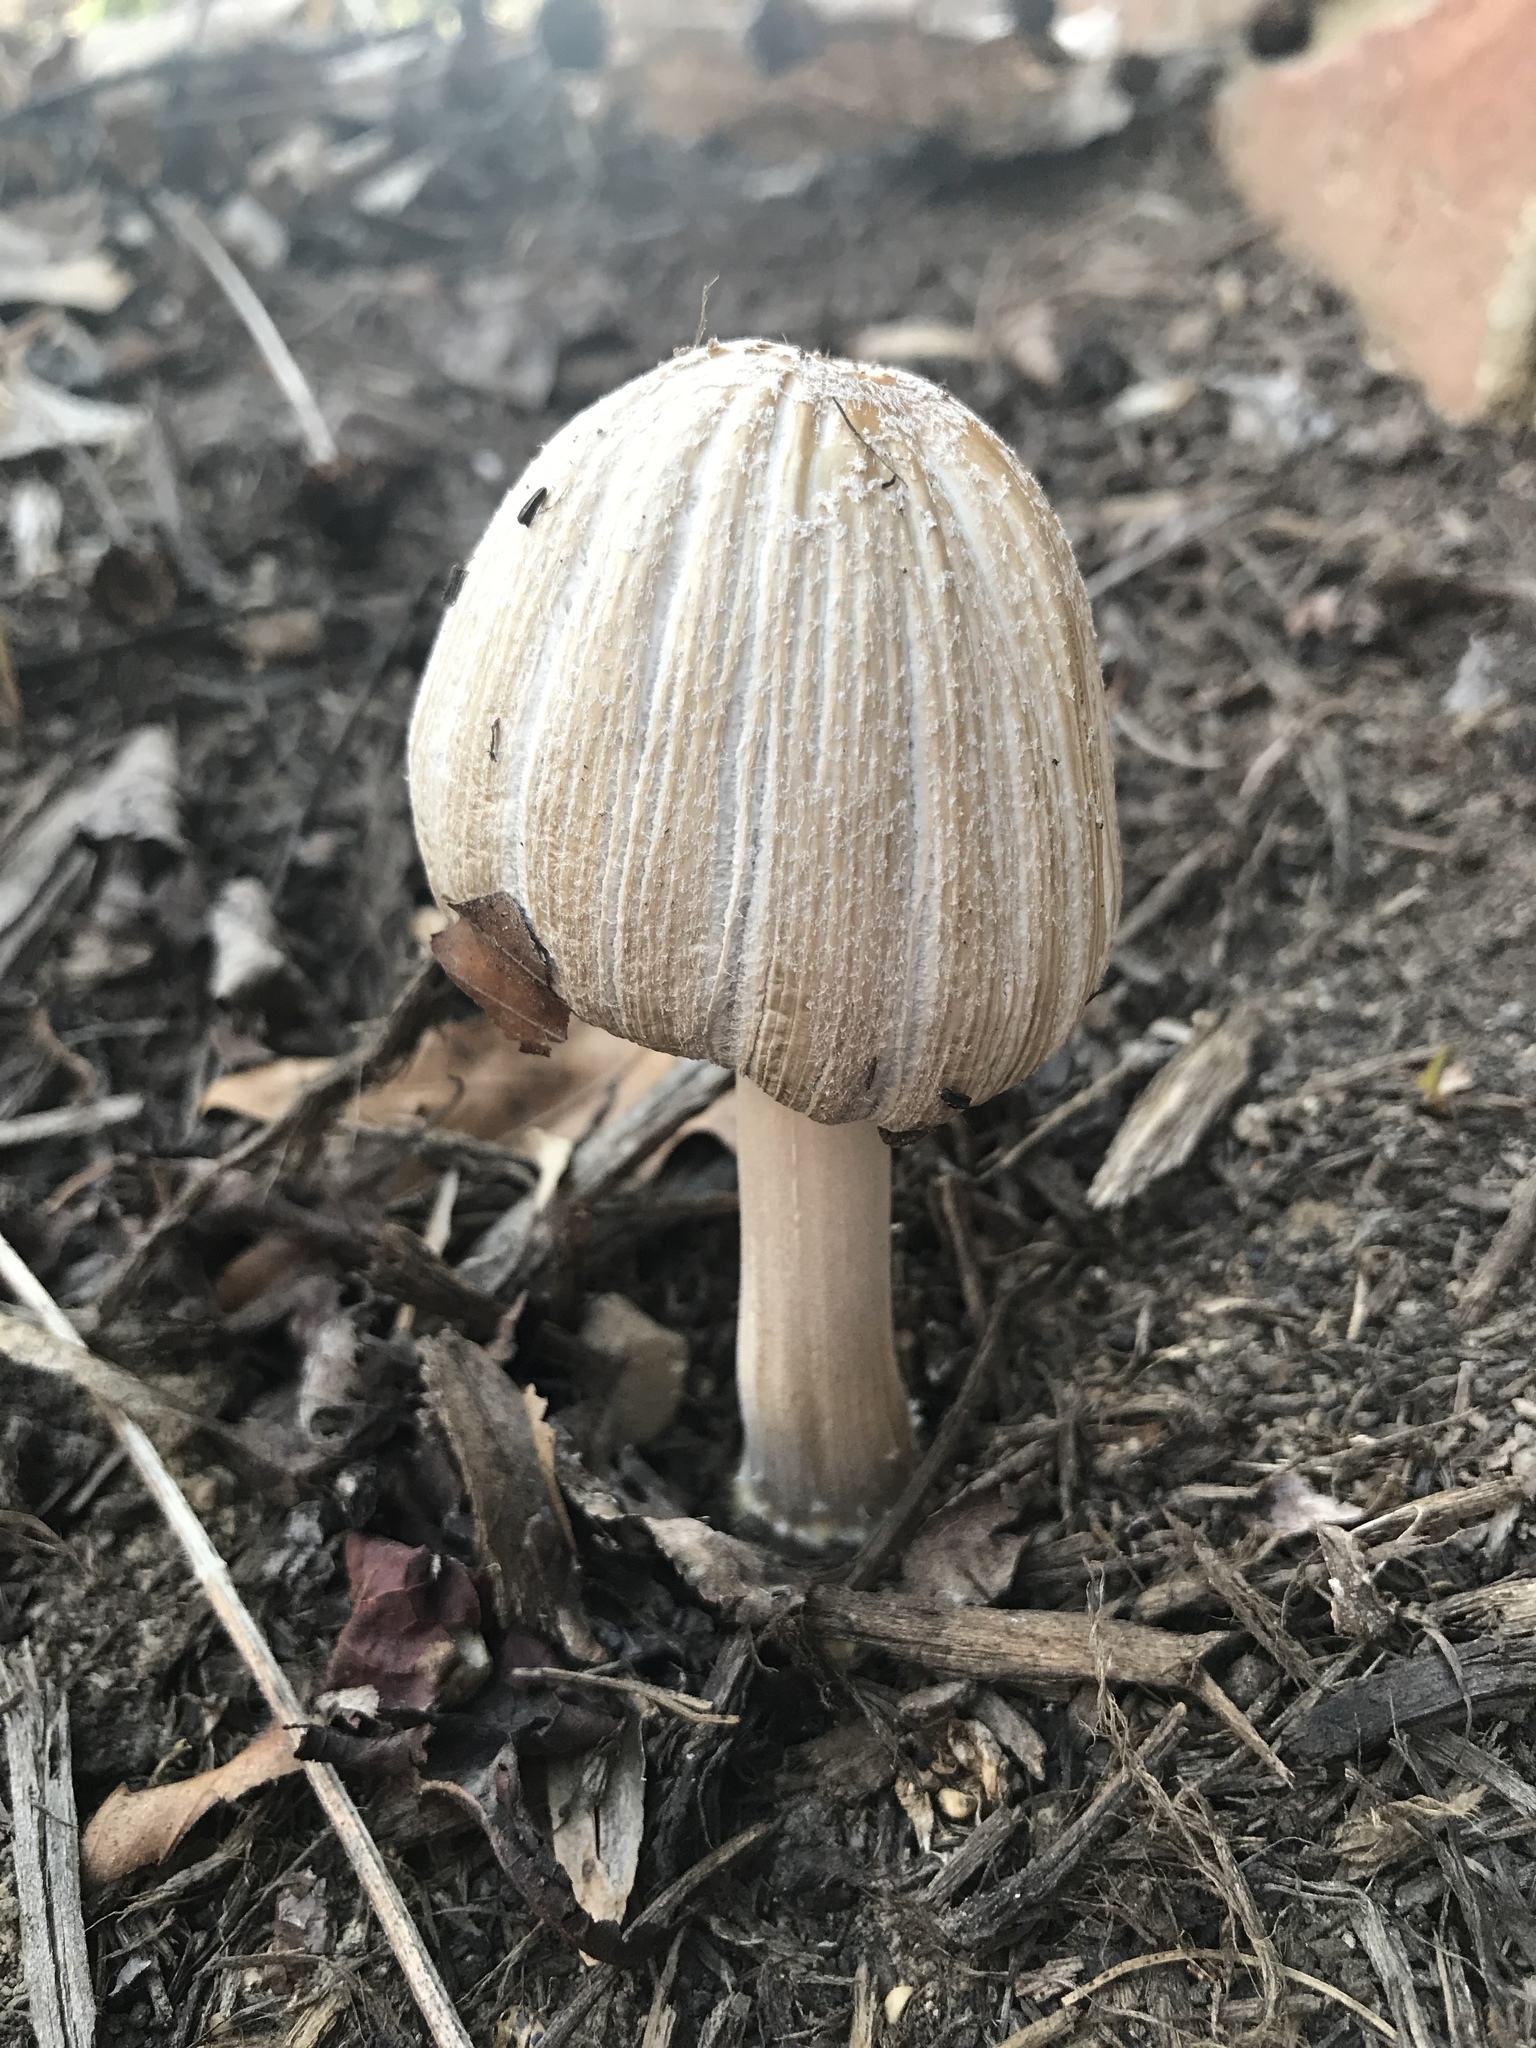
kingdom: Fungi
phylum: Basidiomycota
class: Agaricomycetes
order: Agaricales
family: Psathyrellaceae
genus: Coprinellus
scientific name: Coprinellus micaceus
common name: Glistening ink-cap
